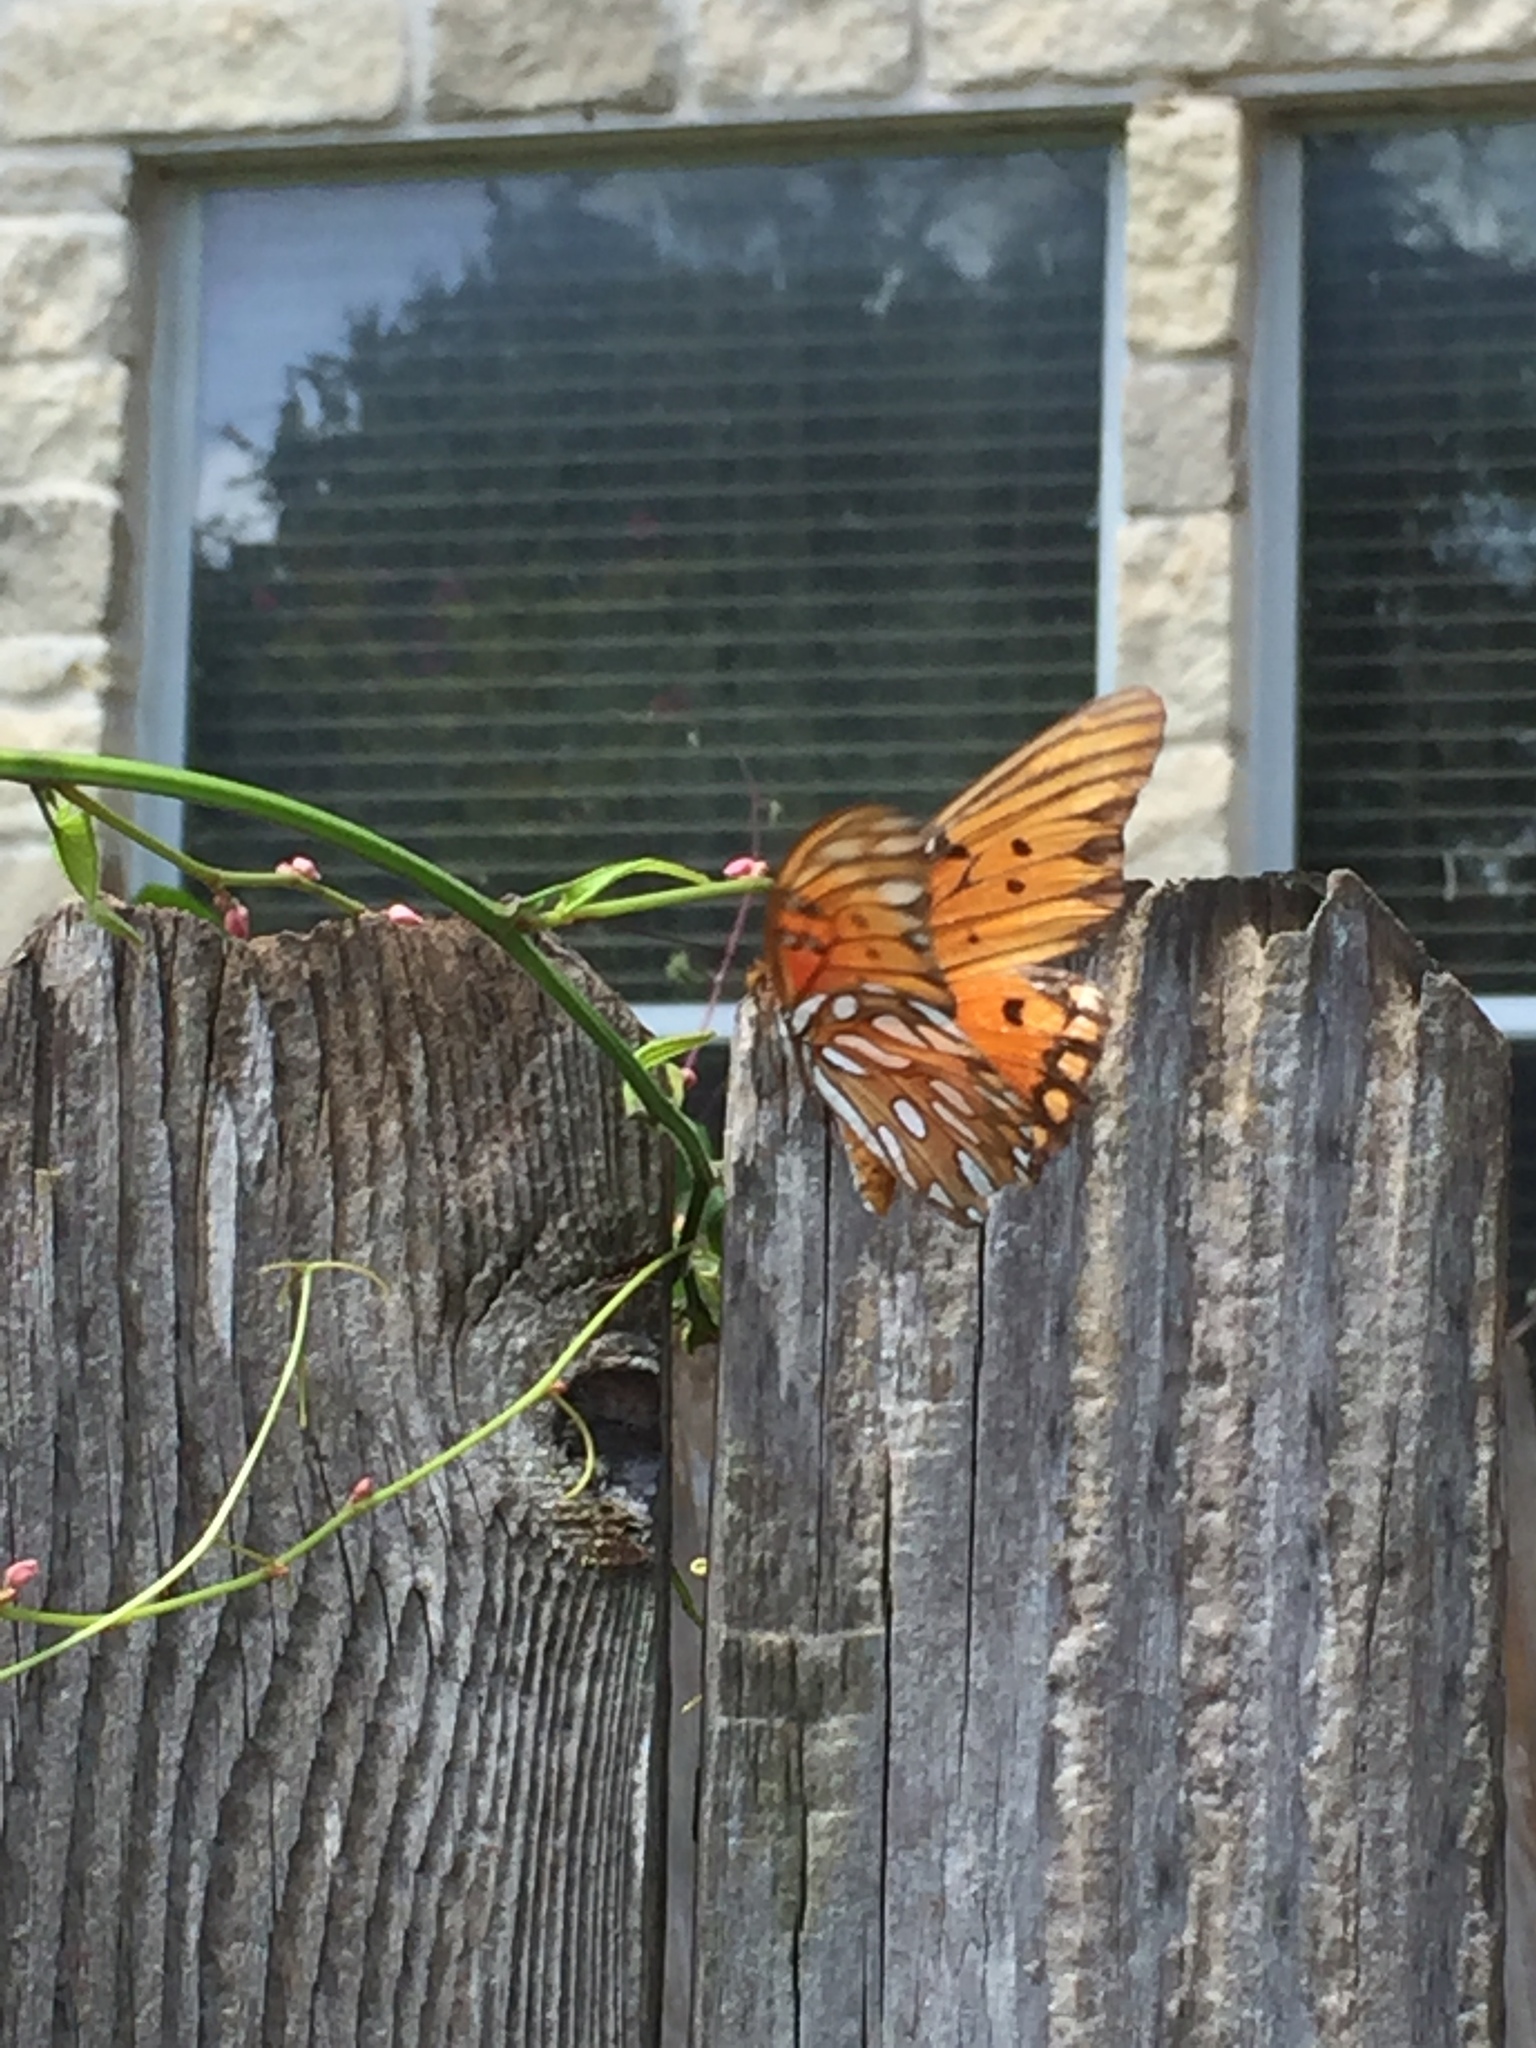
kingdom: Animalia
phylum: Arthropoda
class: Insecta
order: Lepidoptera
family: Nymphalidae
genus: Dione
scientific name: Dione vanillae
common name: Gulf fritillary
